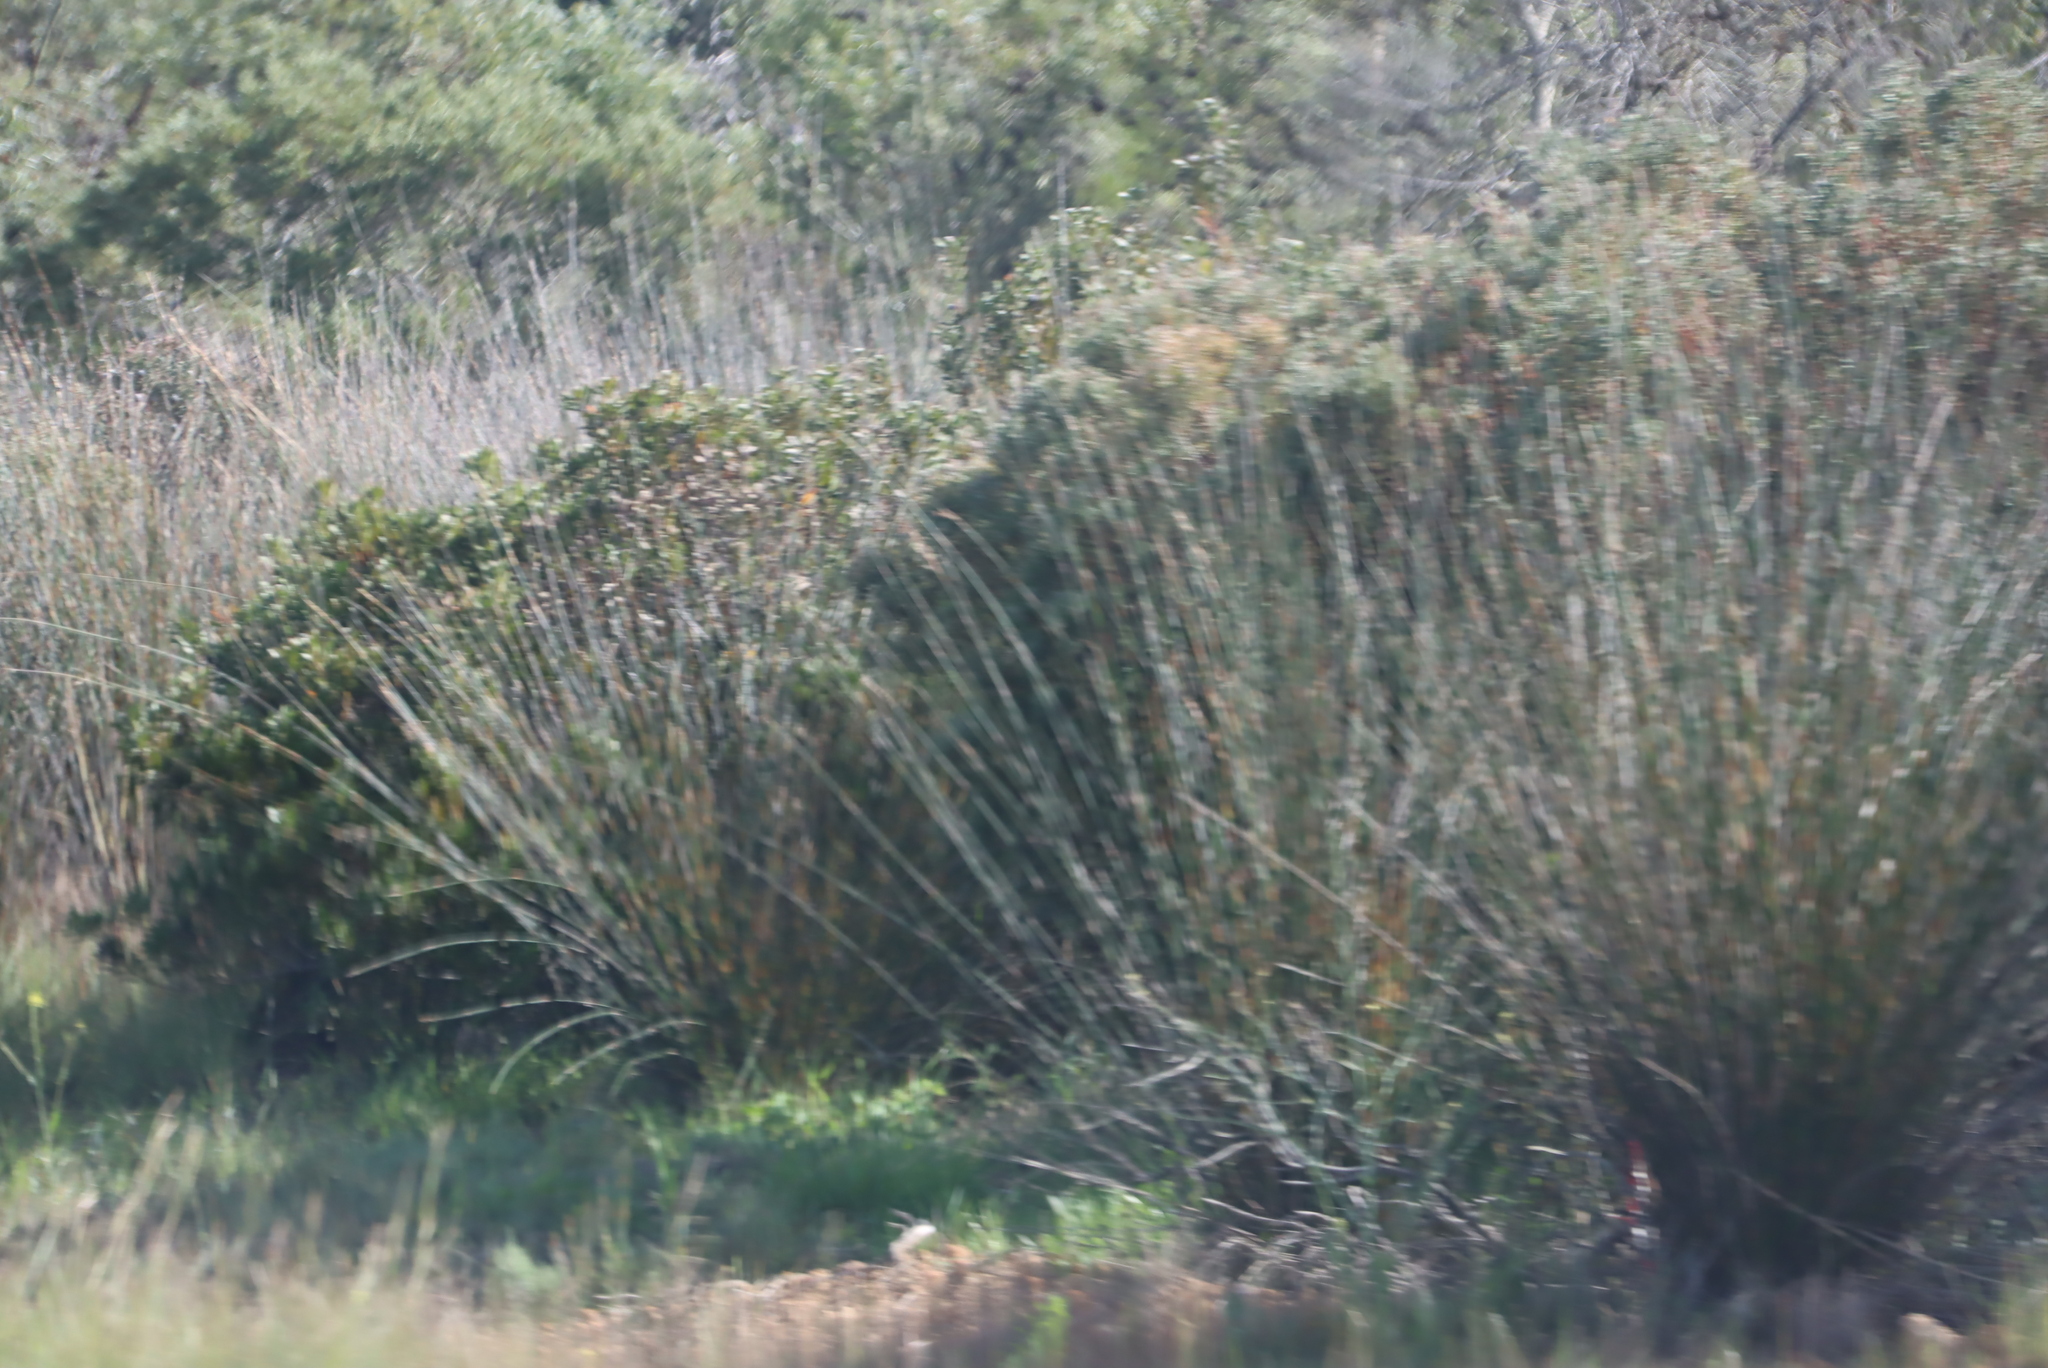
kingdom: Plantae
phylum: Tracheophyta
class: Magnoliopsida
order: Proteales
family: Proteaceae
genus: Leucadendron
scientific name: Leucadendron galpinii
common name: Hairless conebush
